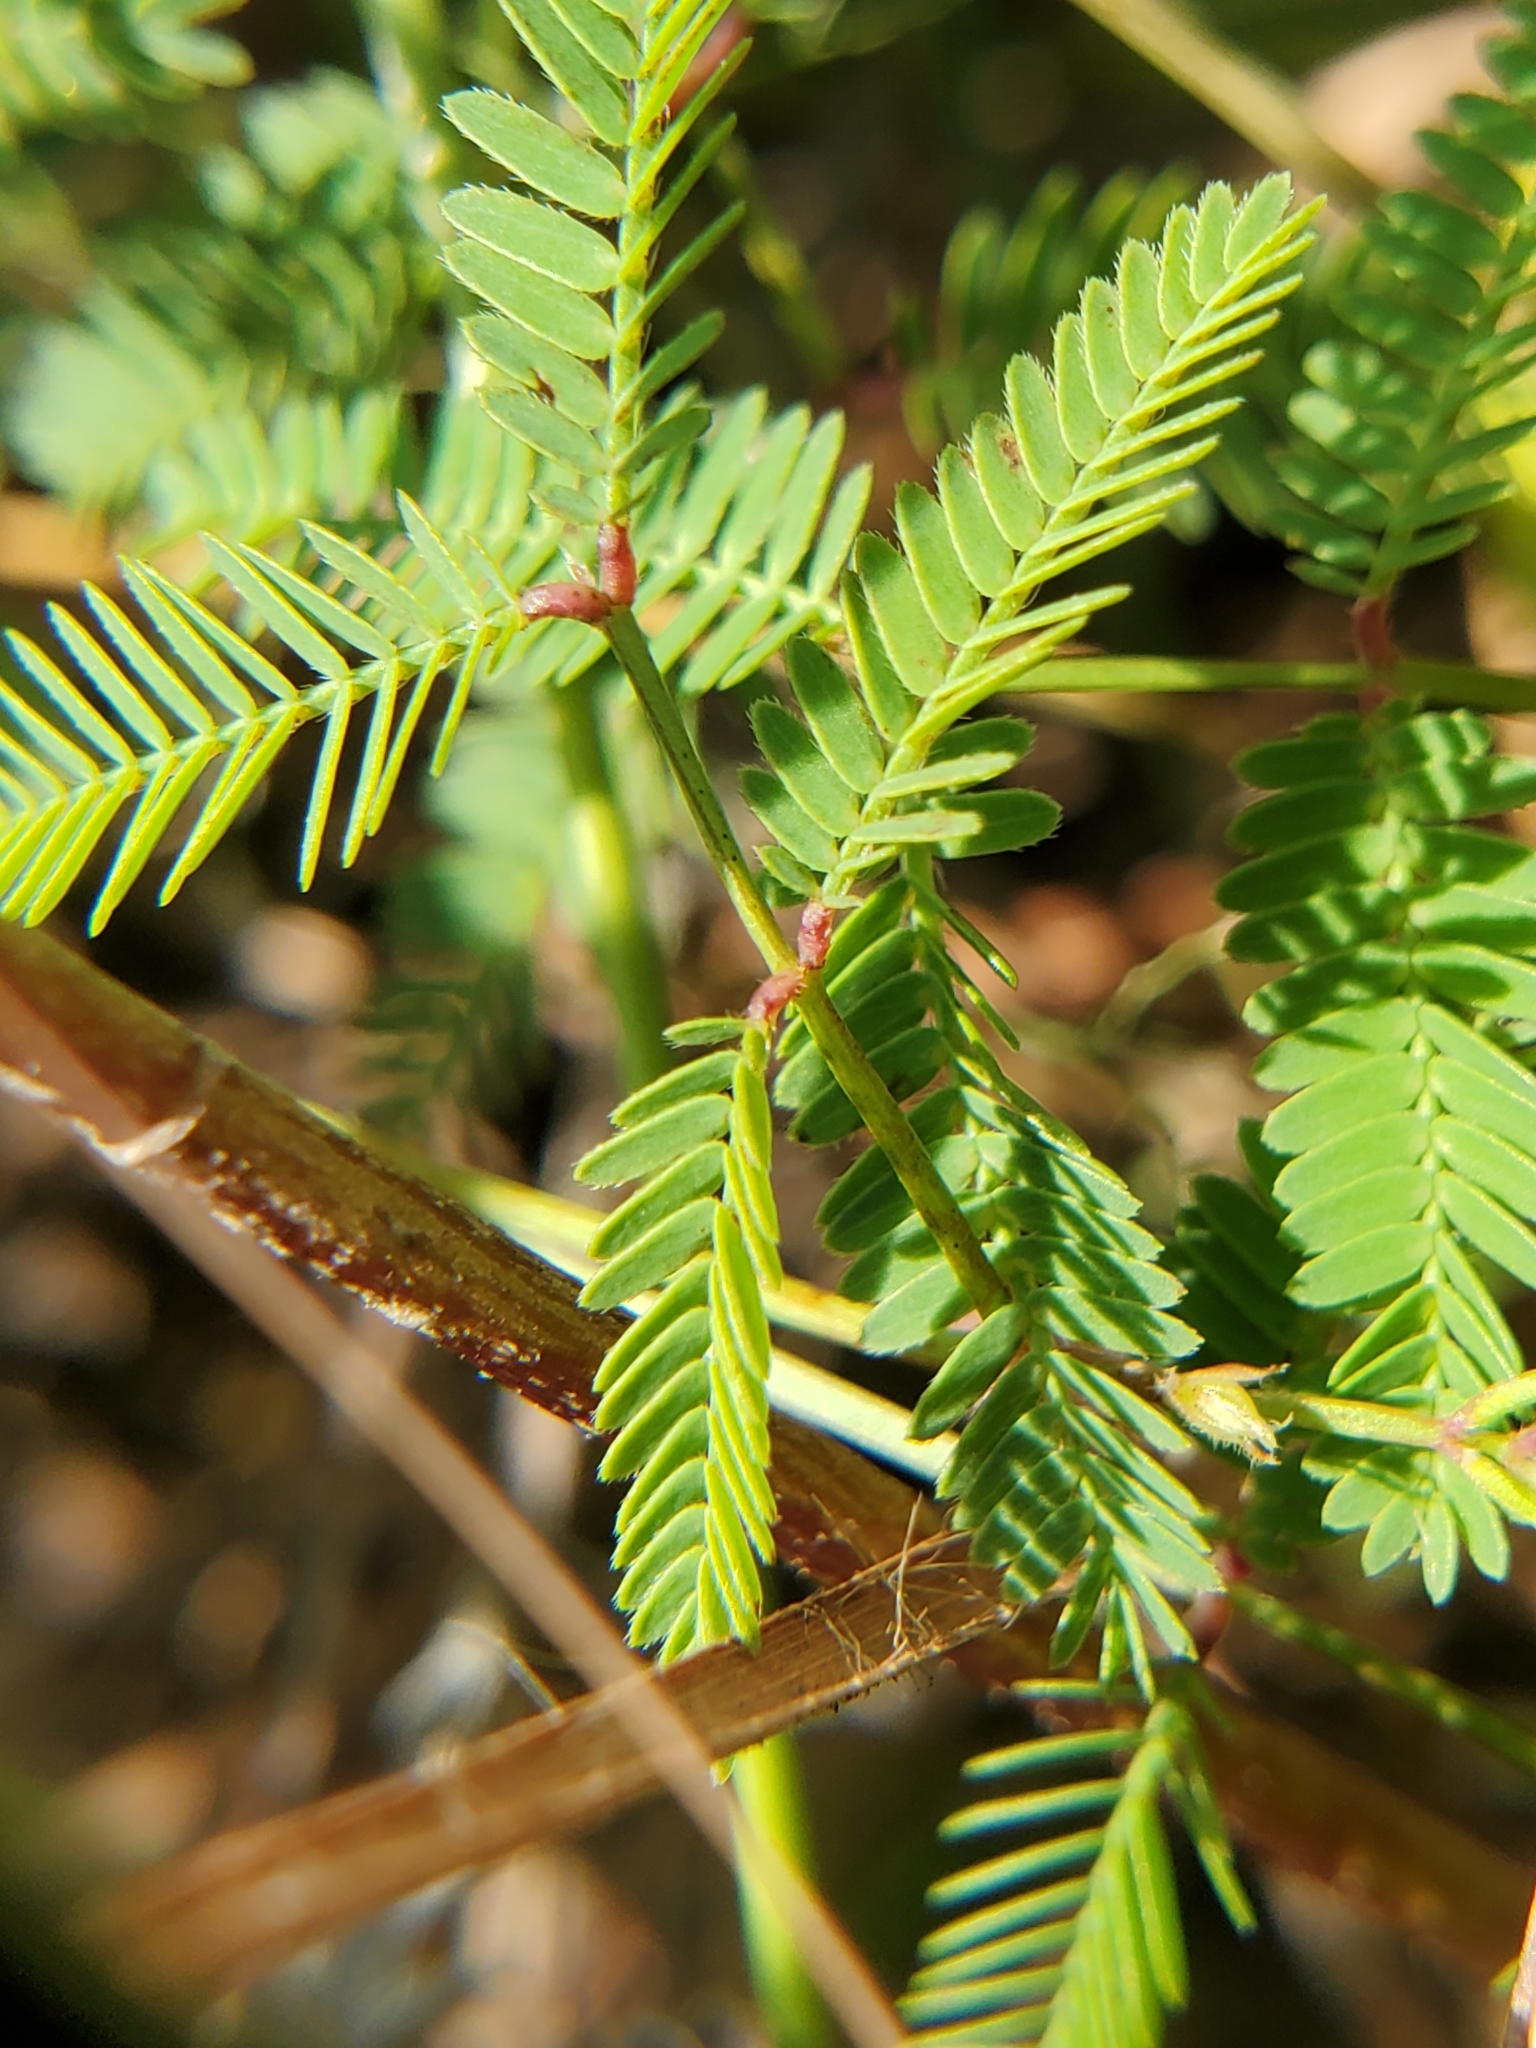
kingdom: Plantae
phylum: Tracheophyta
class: Magnoliopsida
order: Fabales
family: Fabaceae
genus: Neptunia
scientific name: Neptunia lutea
